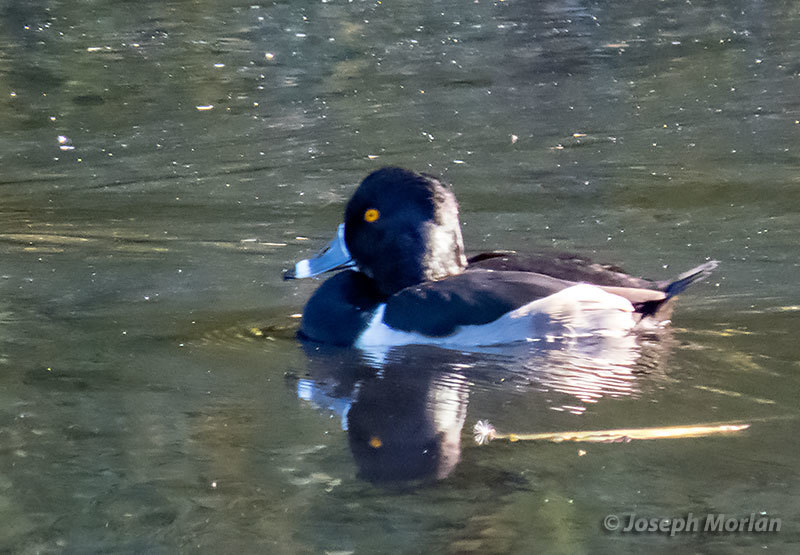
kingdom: Animalia
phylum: Chordata
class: Aves
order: Anseriformes
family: Anatidae
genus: Aythya
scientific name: Aythya collaris
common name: Ring-necked duck
